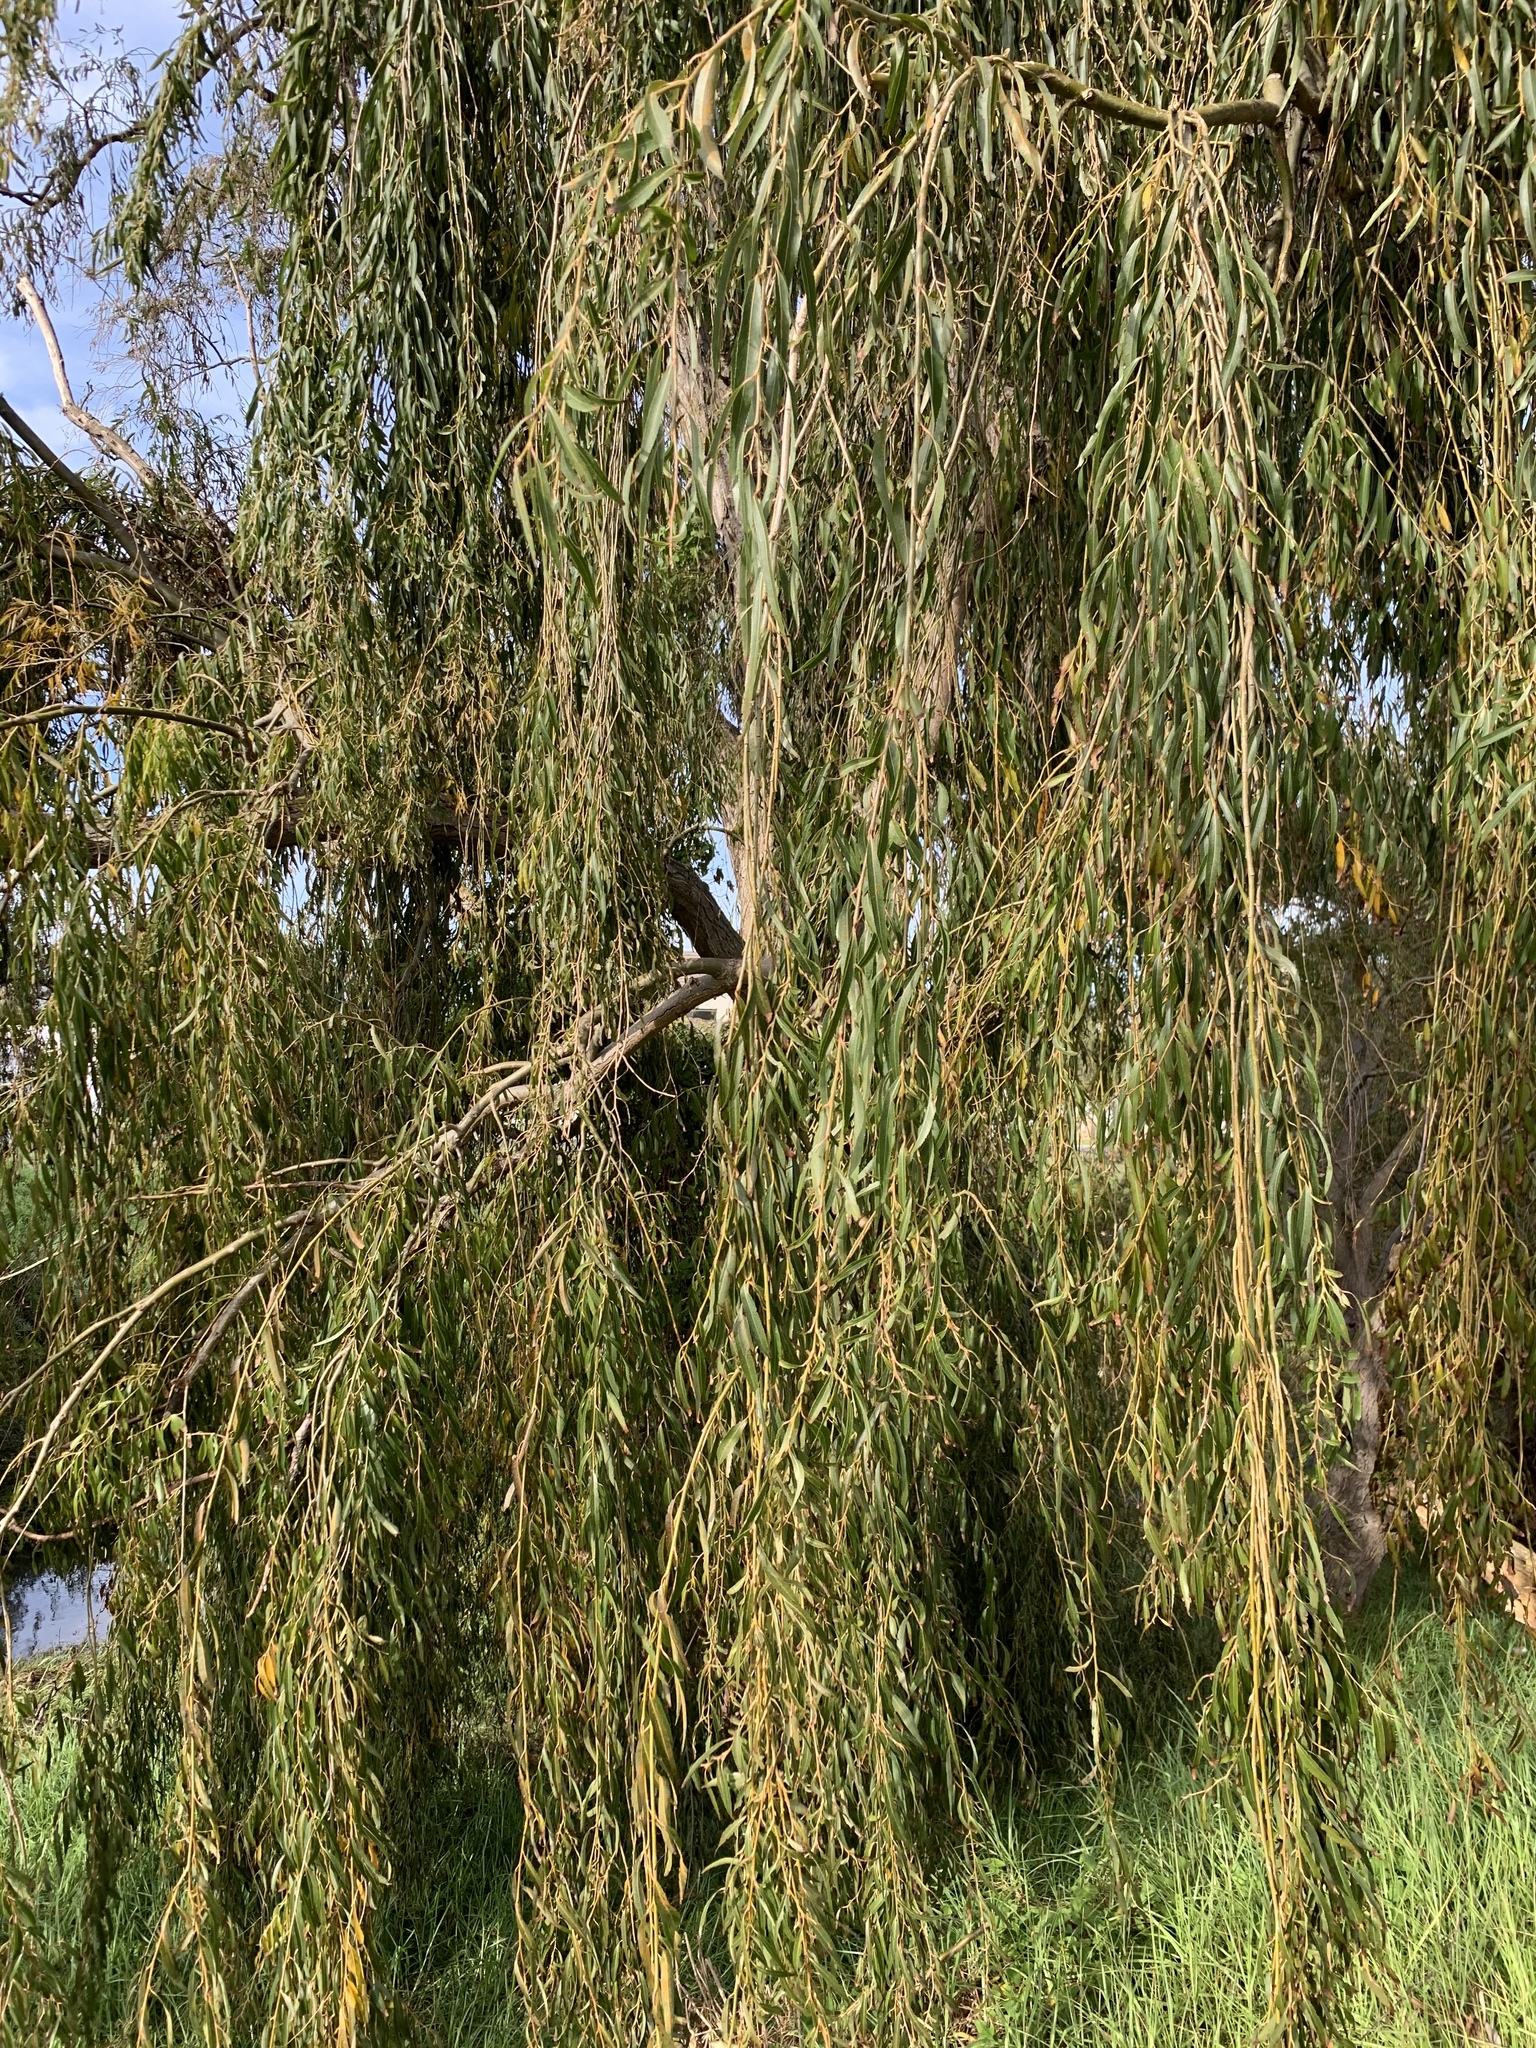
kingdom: Plantae
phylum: Tracheophyta
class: Magnoliopsida
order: Malpighiales
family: Salicaceae
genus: Salix
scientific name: Salix babylonica
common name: Weeping willow
